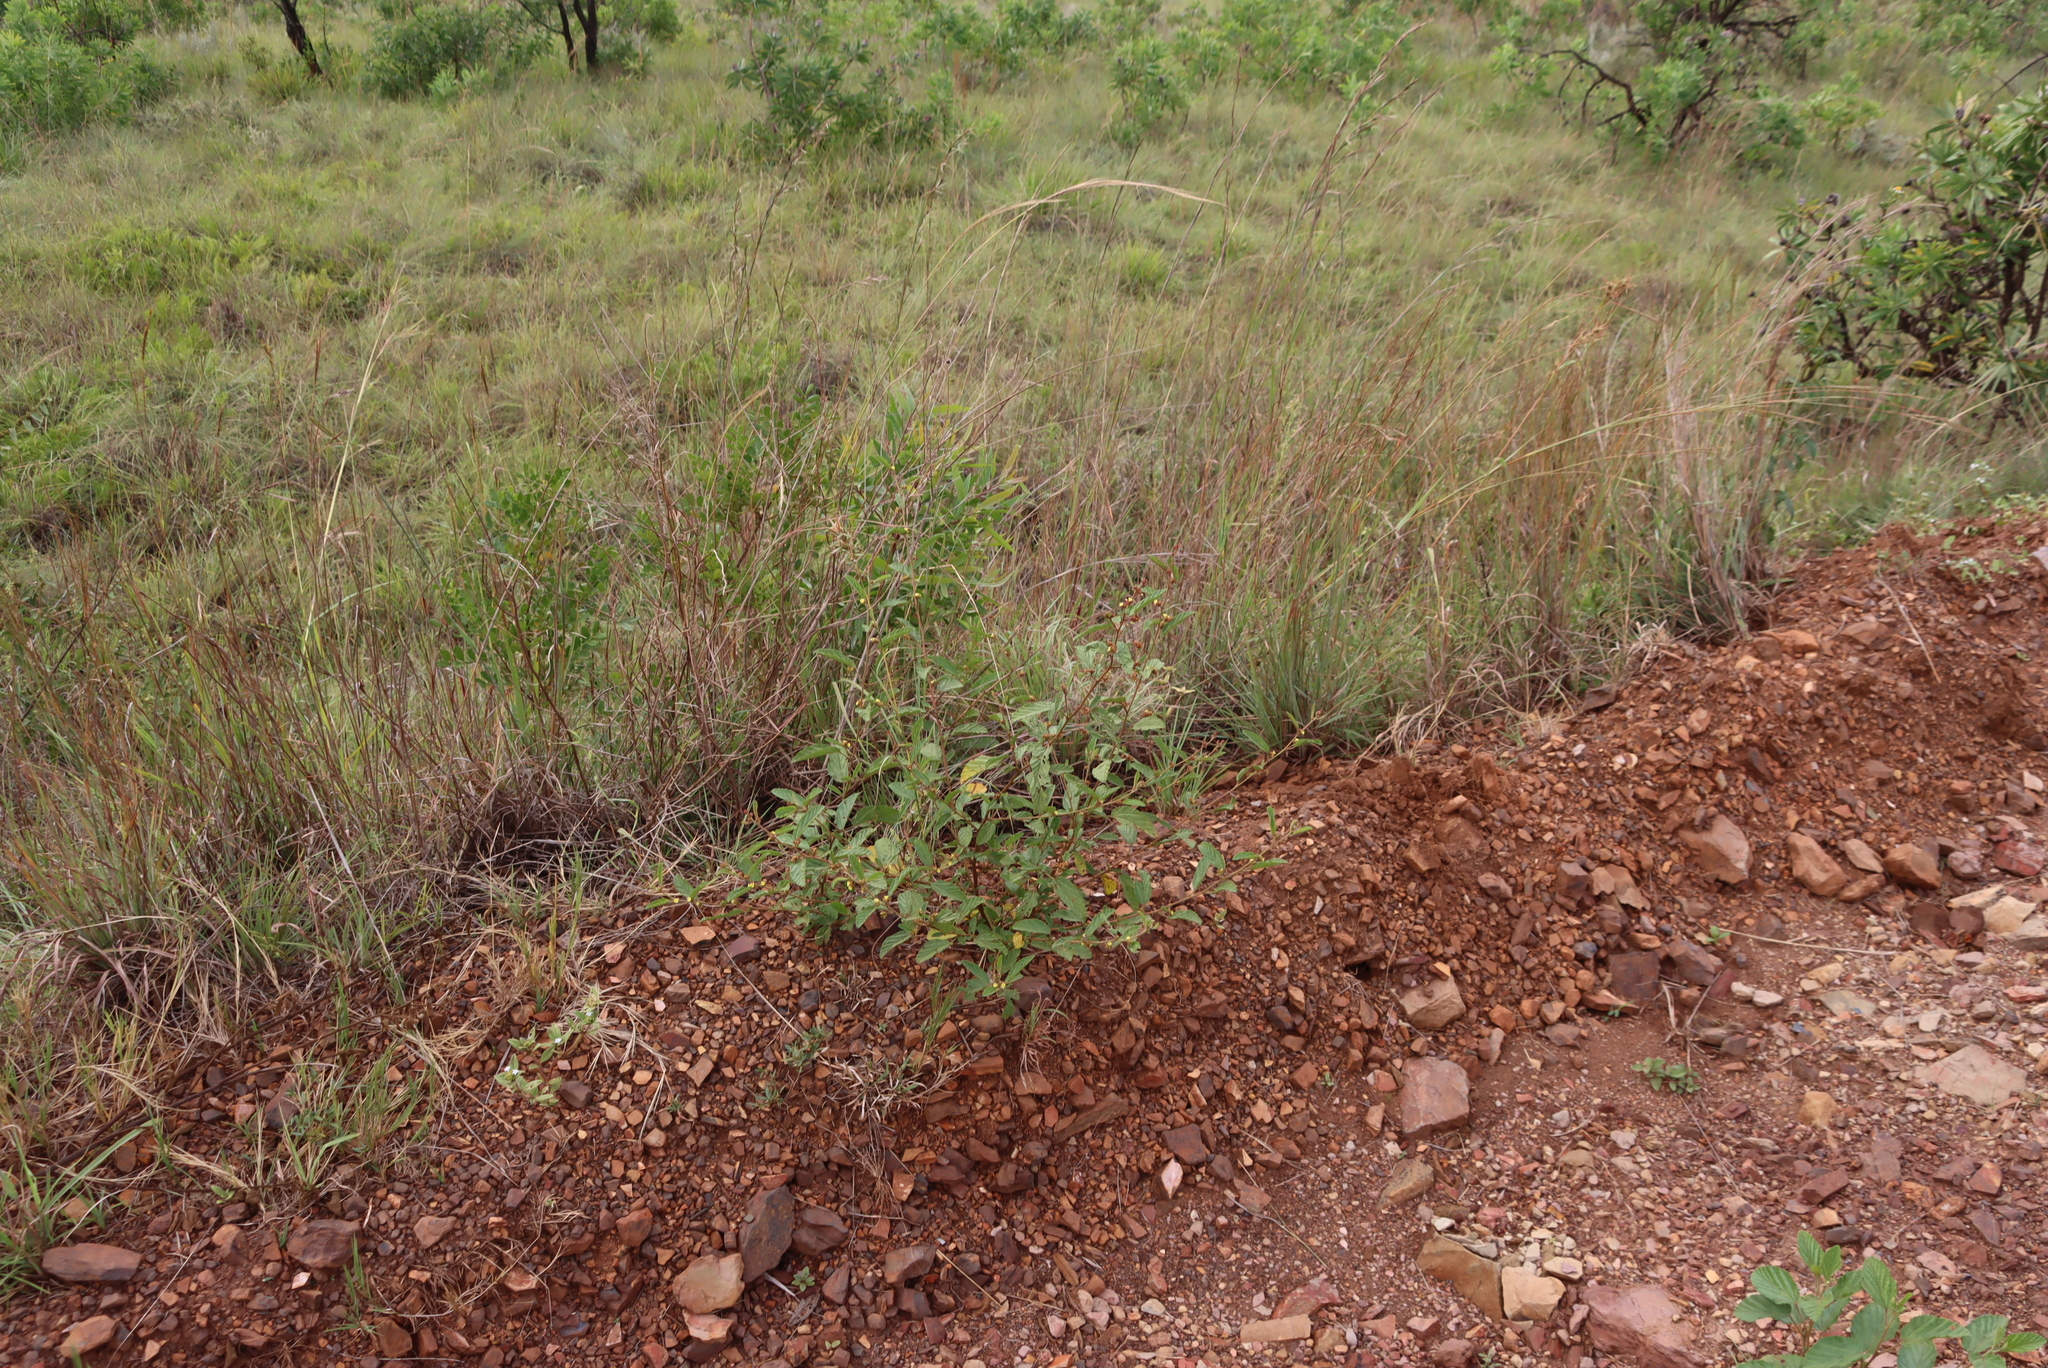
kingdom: Plantae
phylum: Tracheophyta
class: Magnoliopsida
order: Malvales
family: Malvaceae
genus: Waltheria
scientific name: Waltheria indica
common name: Leather-coat
